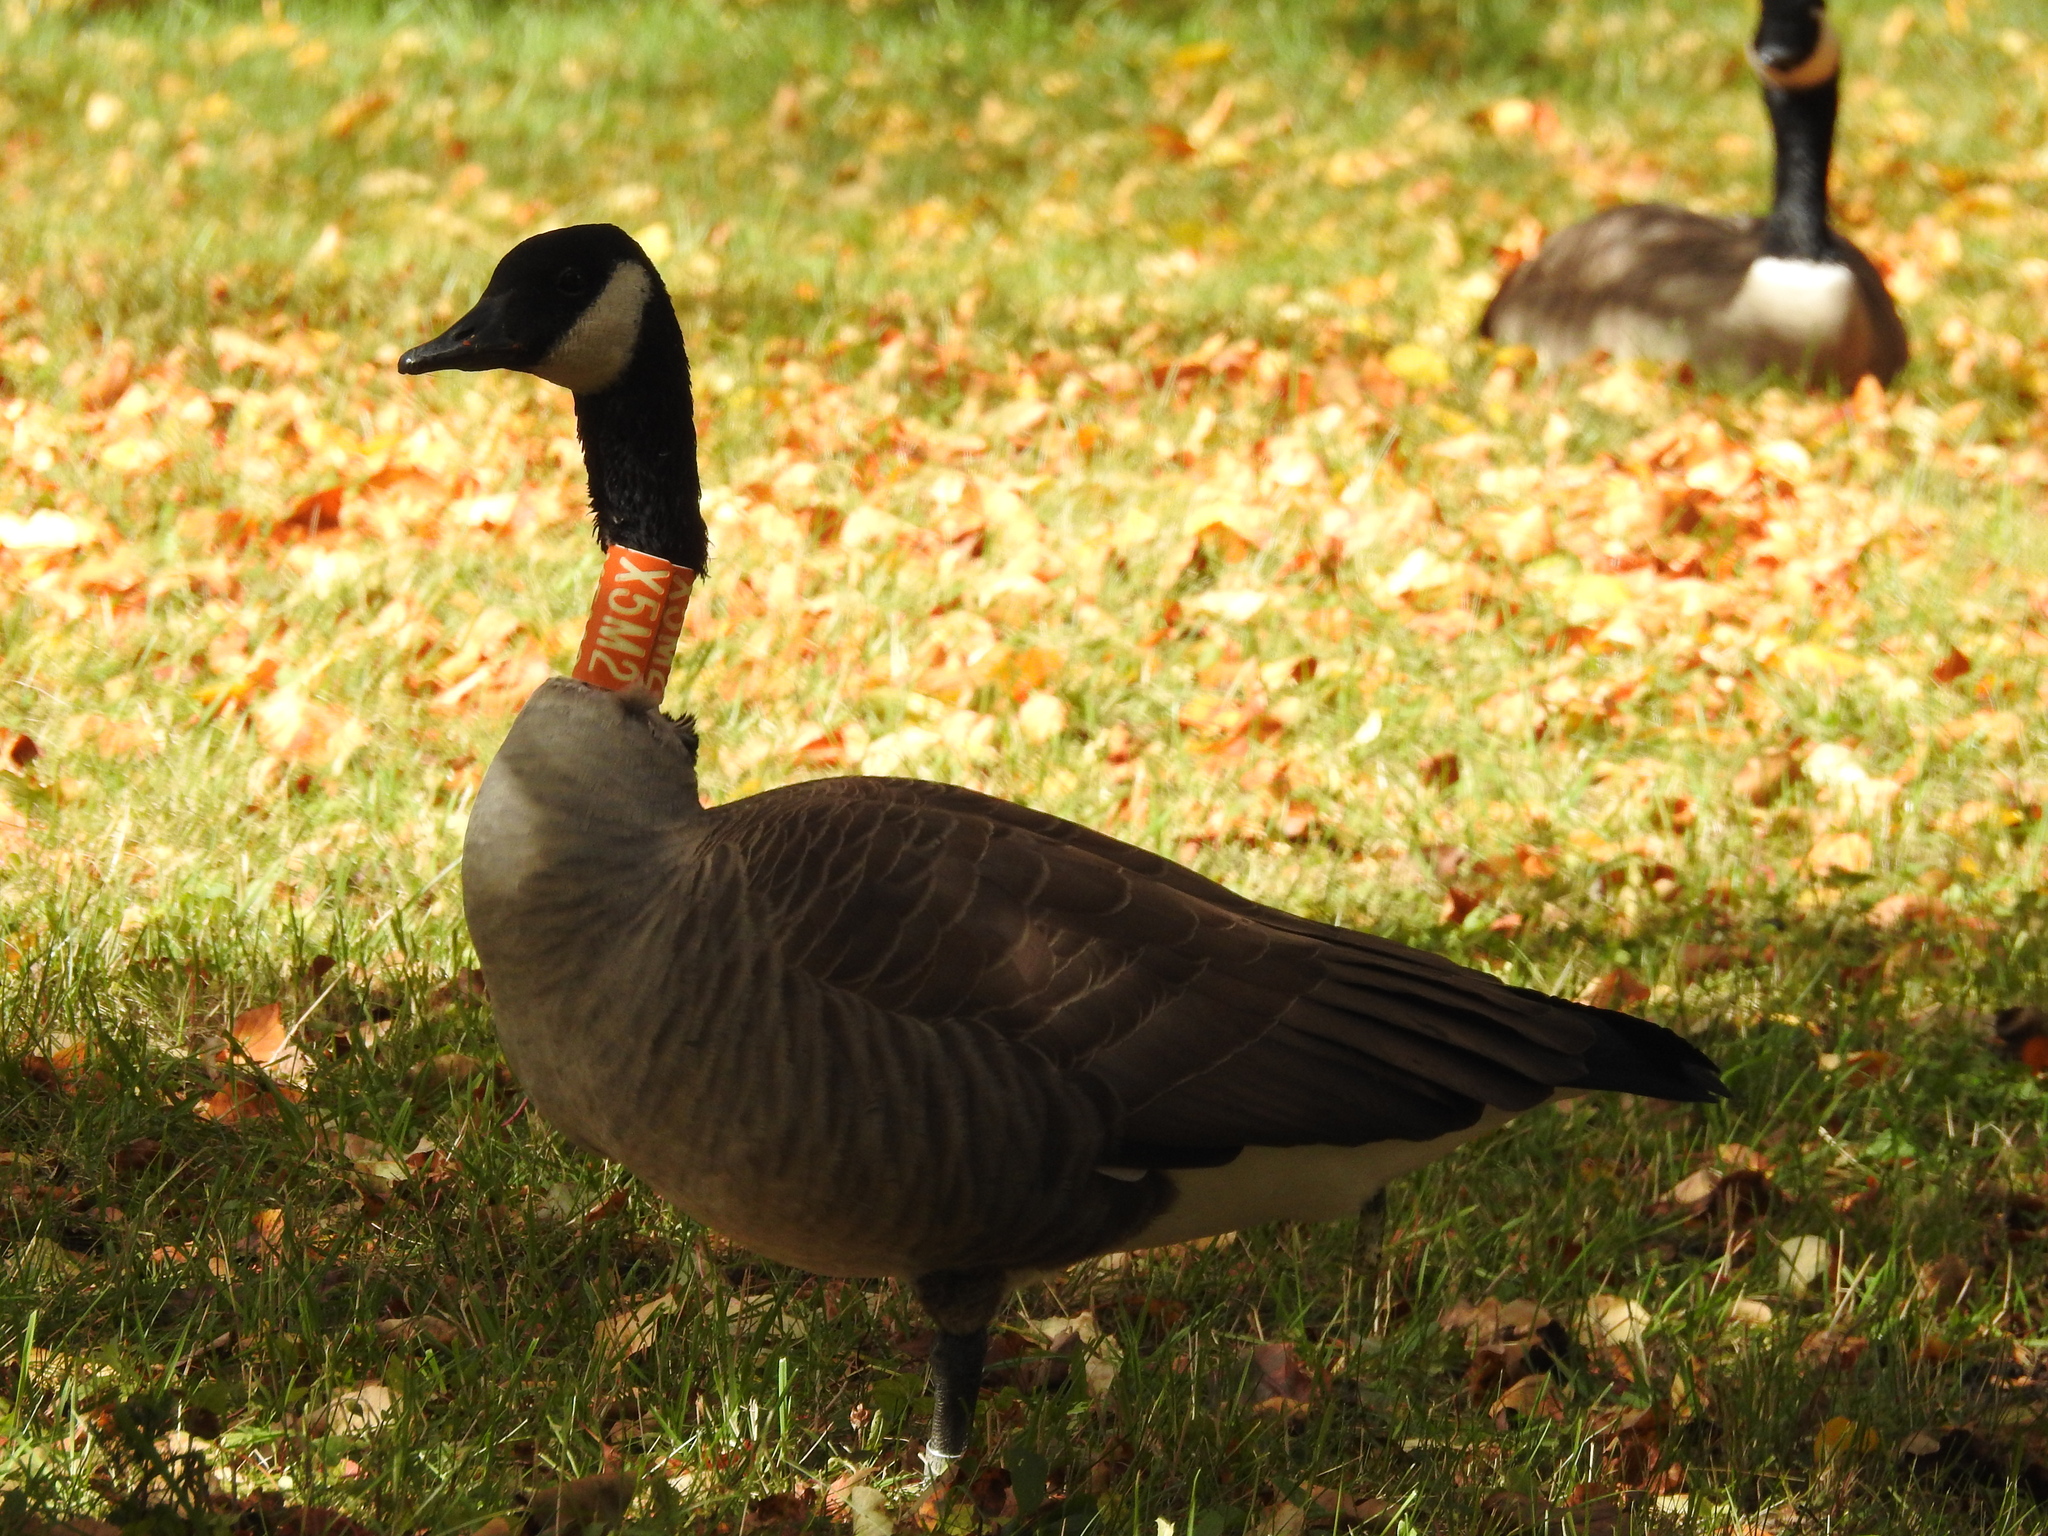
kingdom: Animalia
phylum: Chordata
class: Aves
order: Anseriformes
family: Anatidae
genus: Branta
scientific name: Branta canadensis
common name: Canada goose
